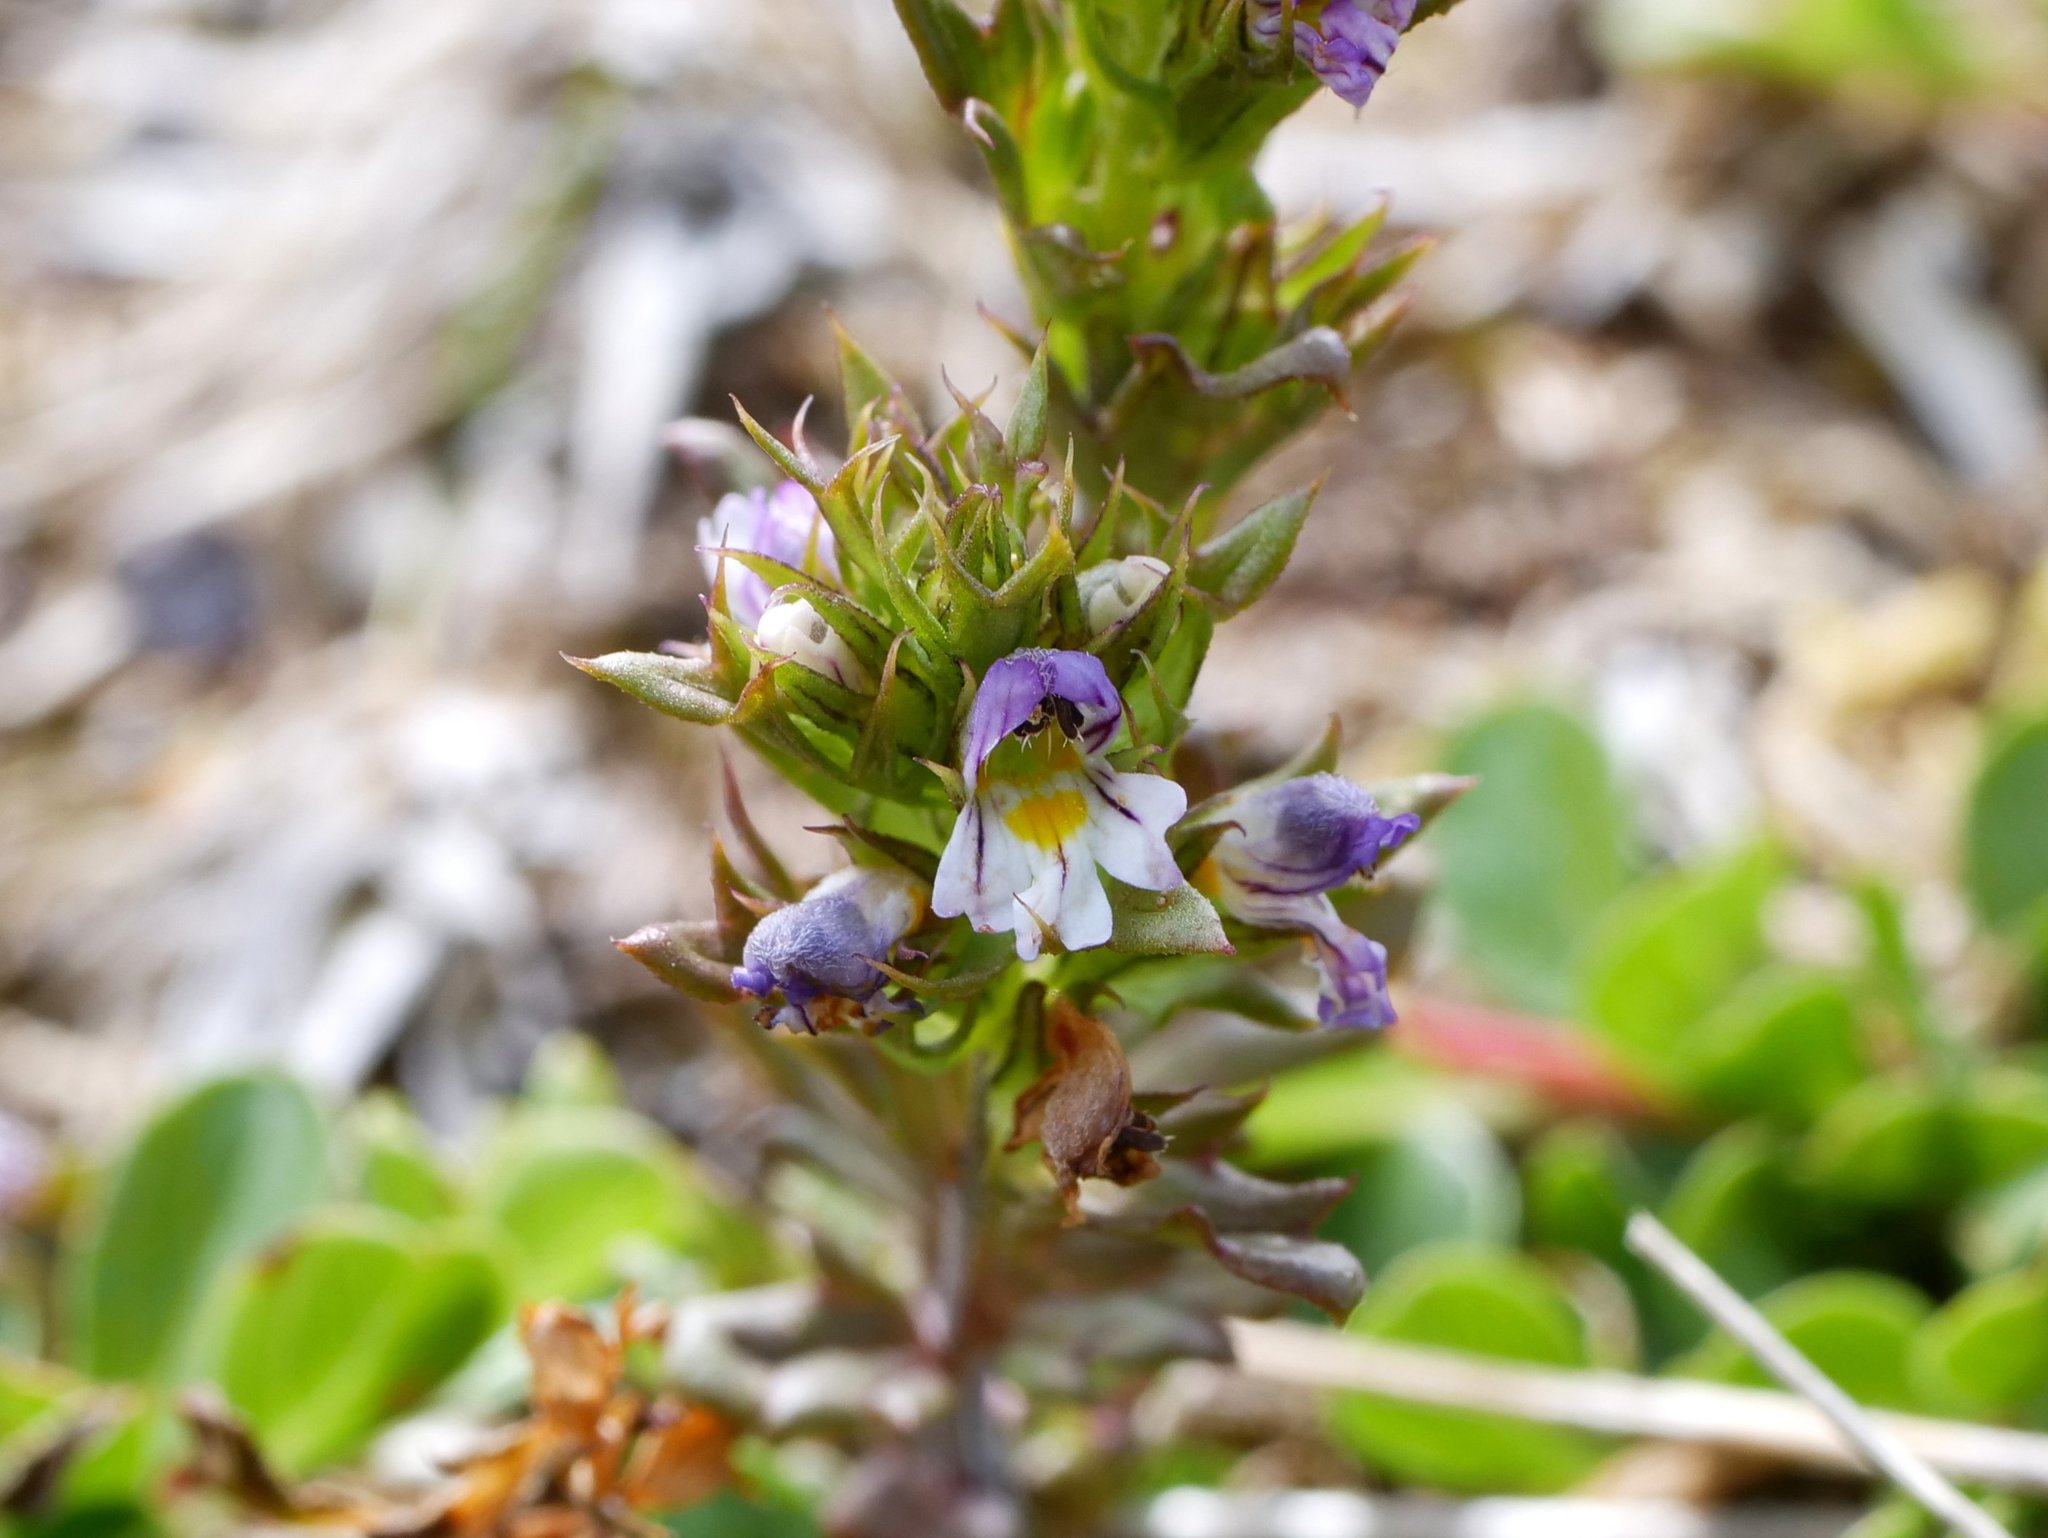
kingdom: Plantae
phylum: Tracheophyta
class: Magnoliopsida
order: Lamiales
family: Orobanchaceae
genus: Euphrasia
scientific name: Euphrasia salisburgensis
